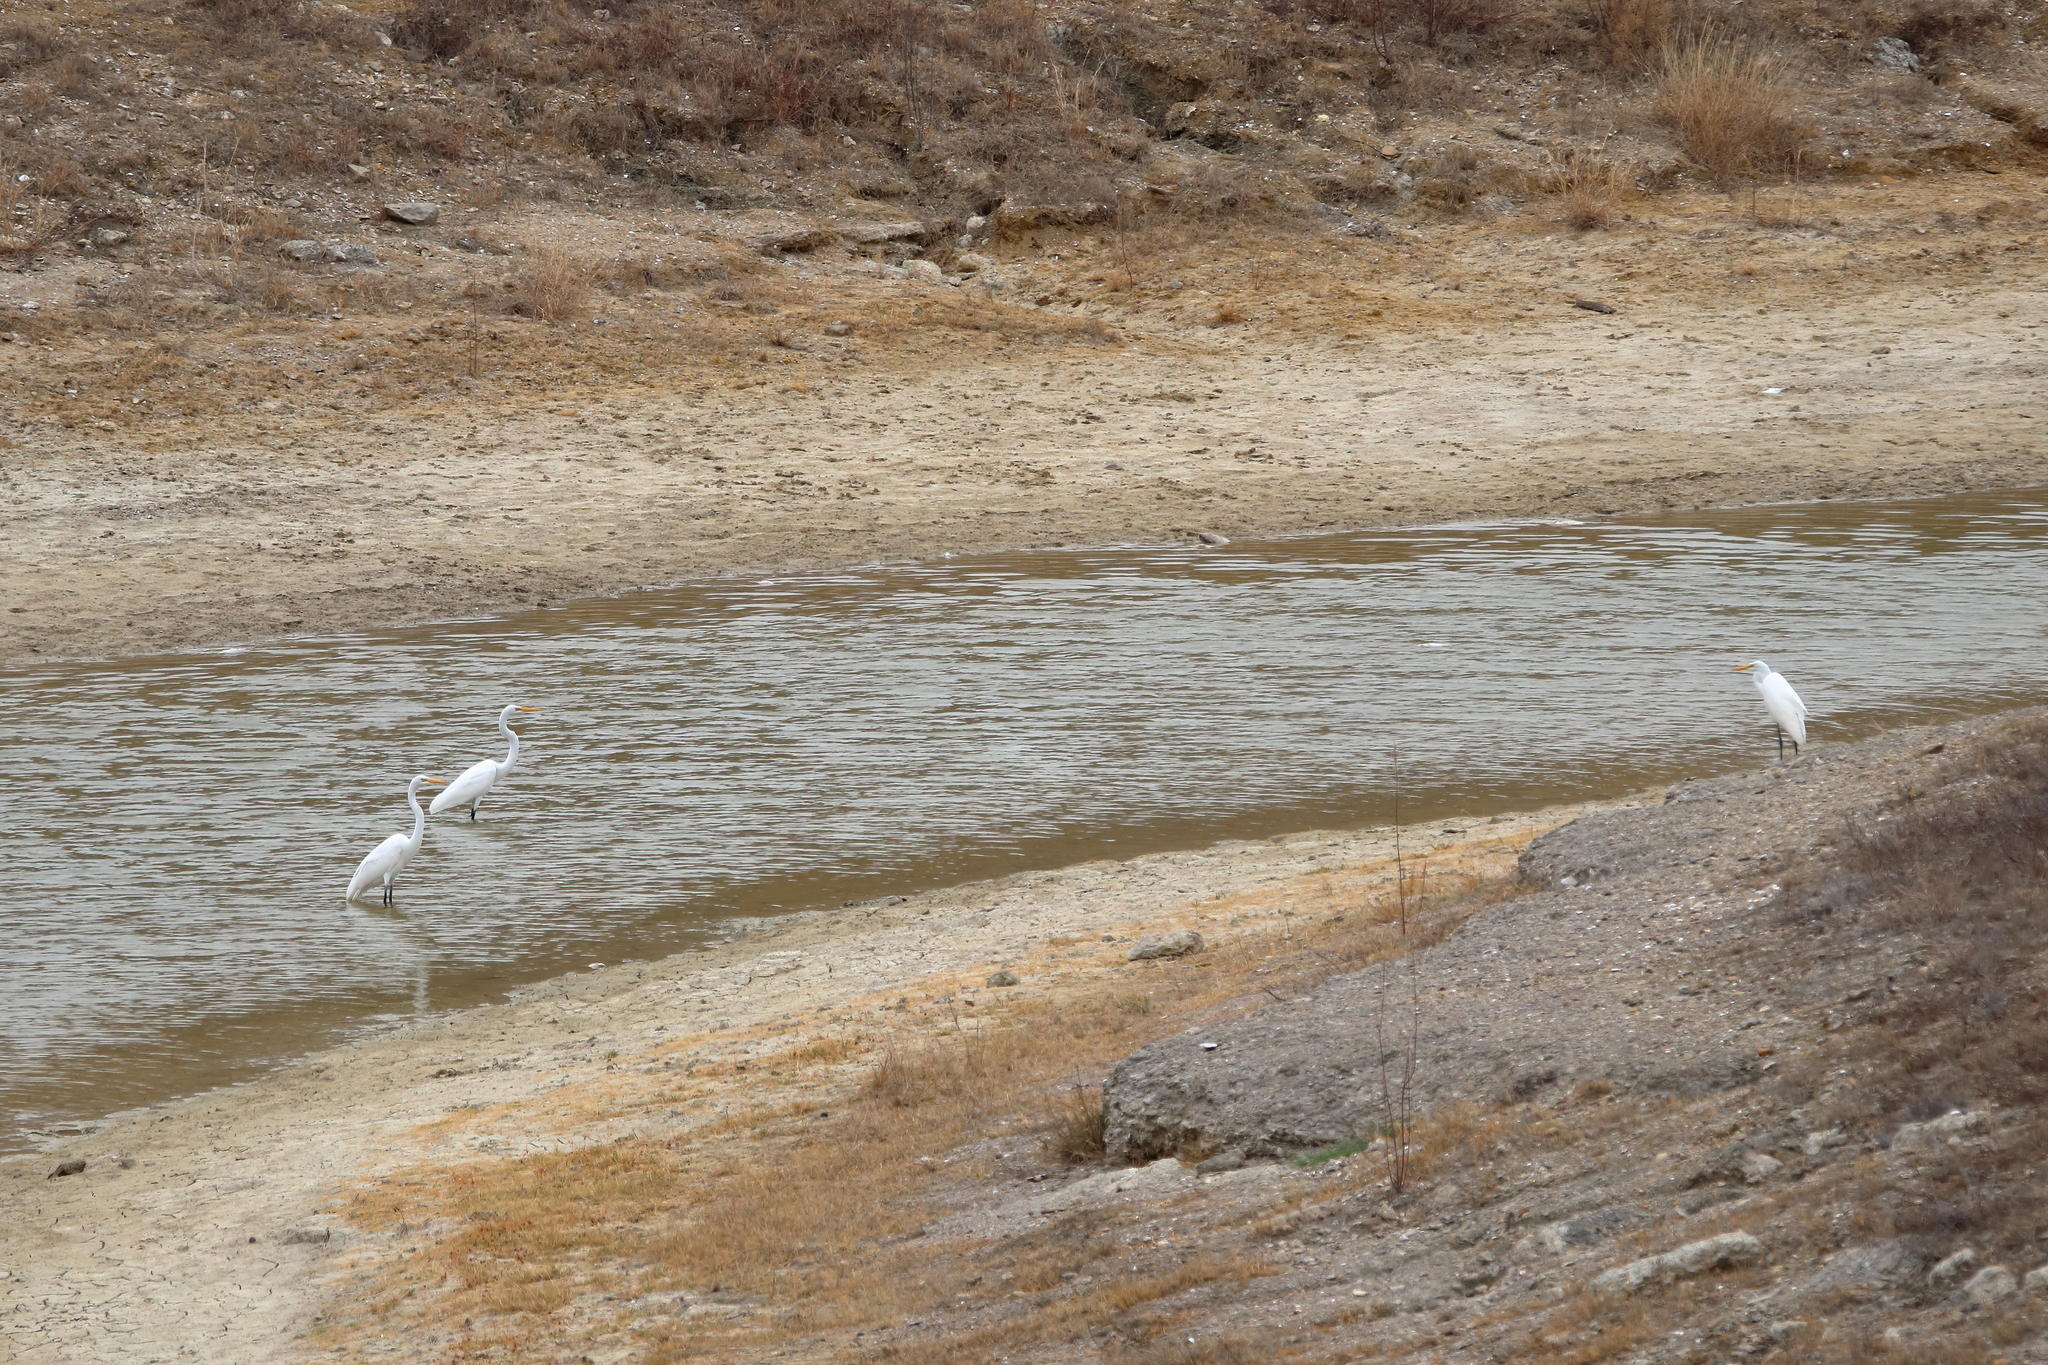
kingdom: Animalia
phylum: Chordata
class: Aves
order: Pelecaniformes
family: Ardeidae
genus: Ardea
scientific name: Ardea alba
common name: Great egret
